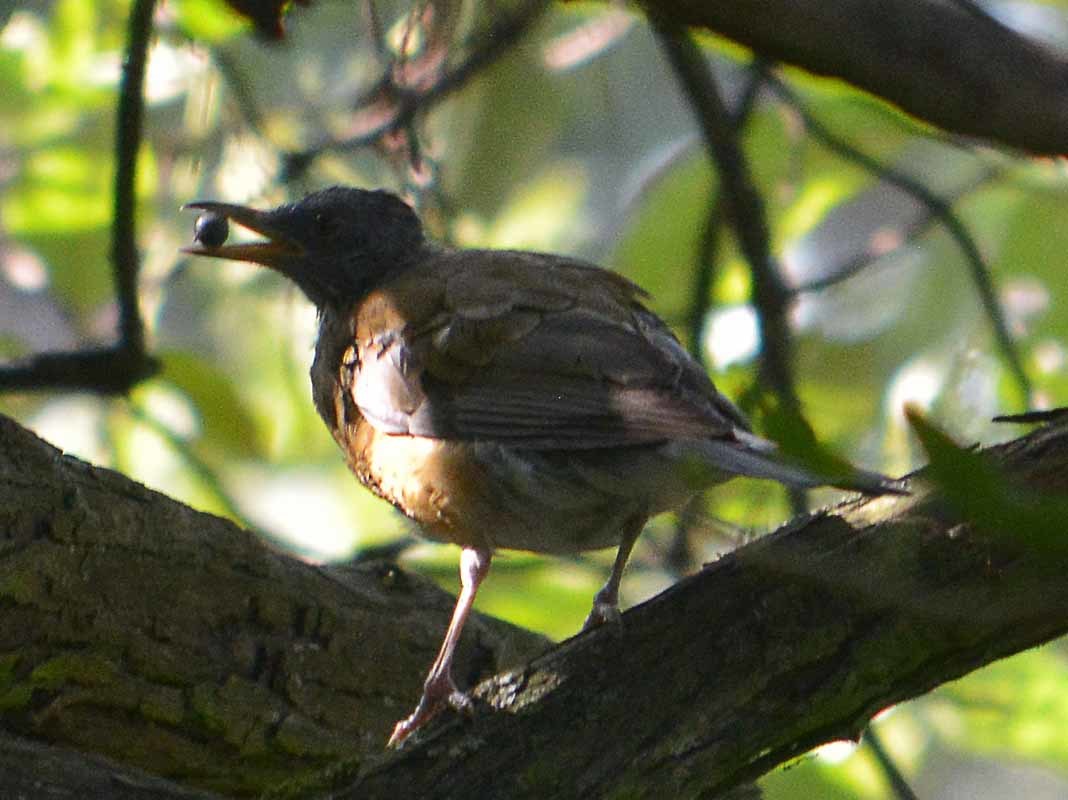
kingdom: Animalia
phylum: Chordata
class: Aves
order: Passeriformes
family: Turdidae
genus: Turdus
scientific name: Turdus rufopalliatus
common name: Rufous-backed robin
